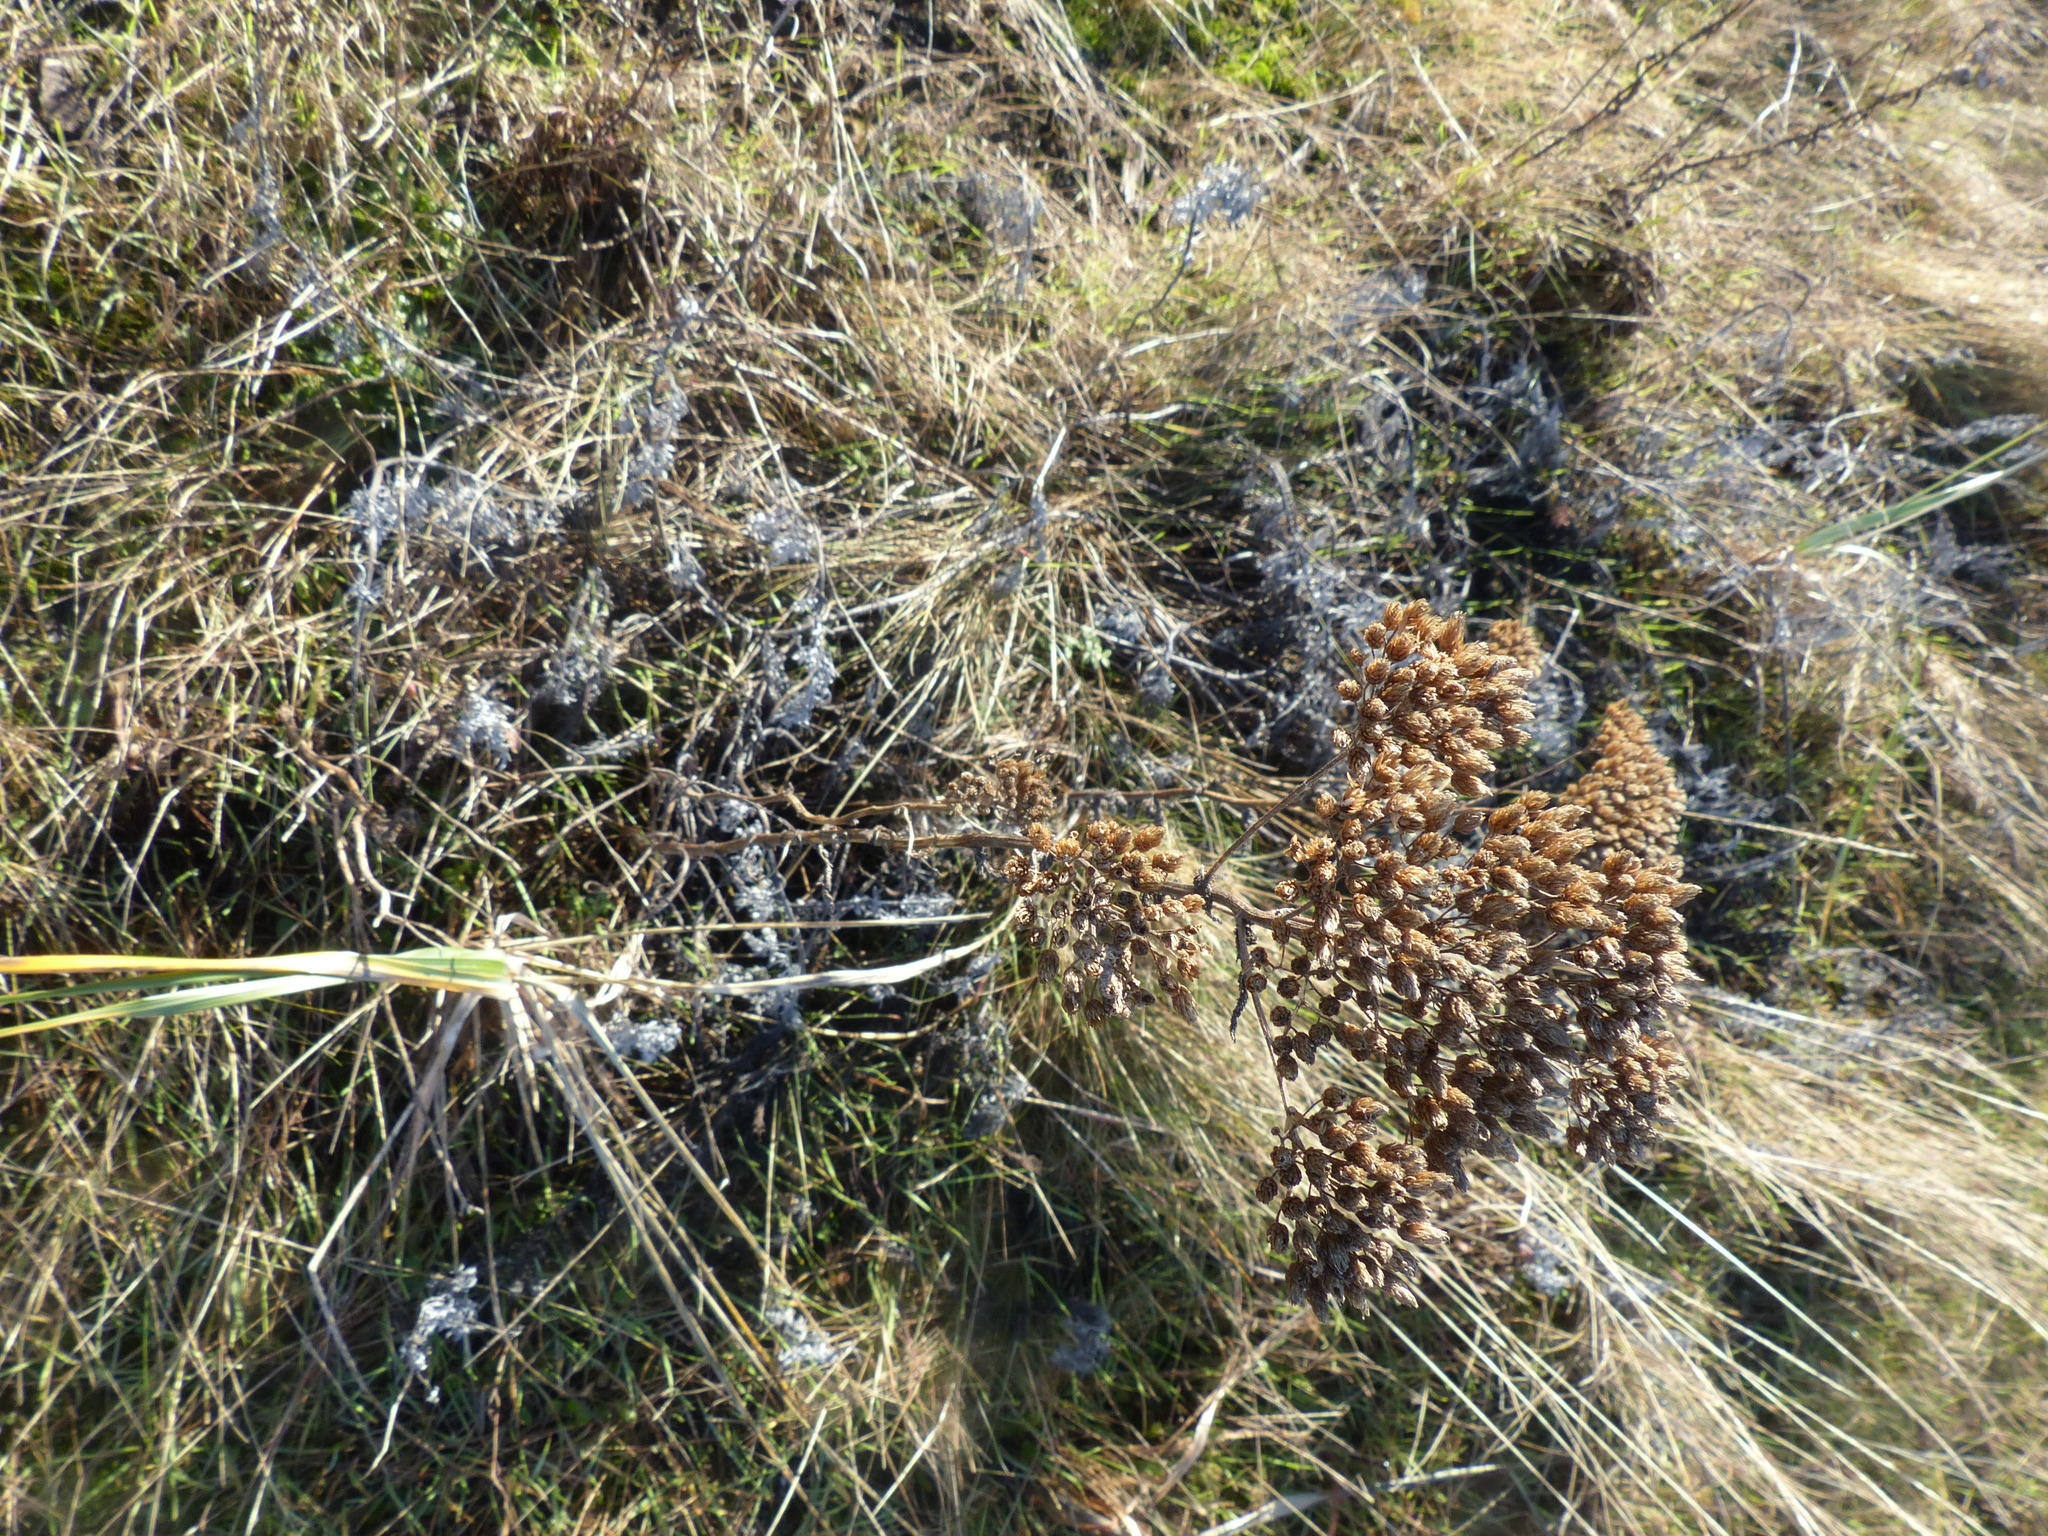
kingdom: Plantae
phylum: Tracheophyta
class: Magnoliopsida
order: Asterales
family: Asteraceae
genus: Achillea
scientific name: Achillea millefolium
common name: Yarrow
